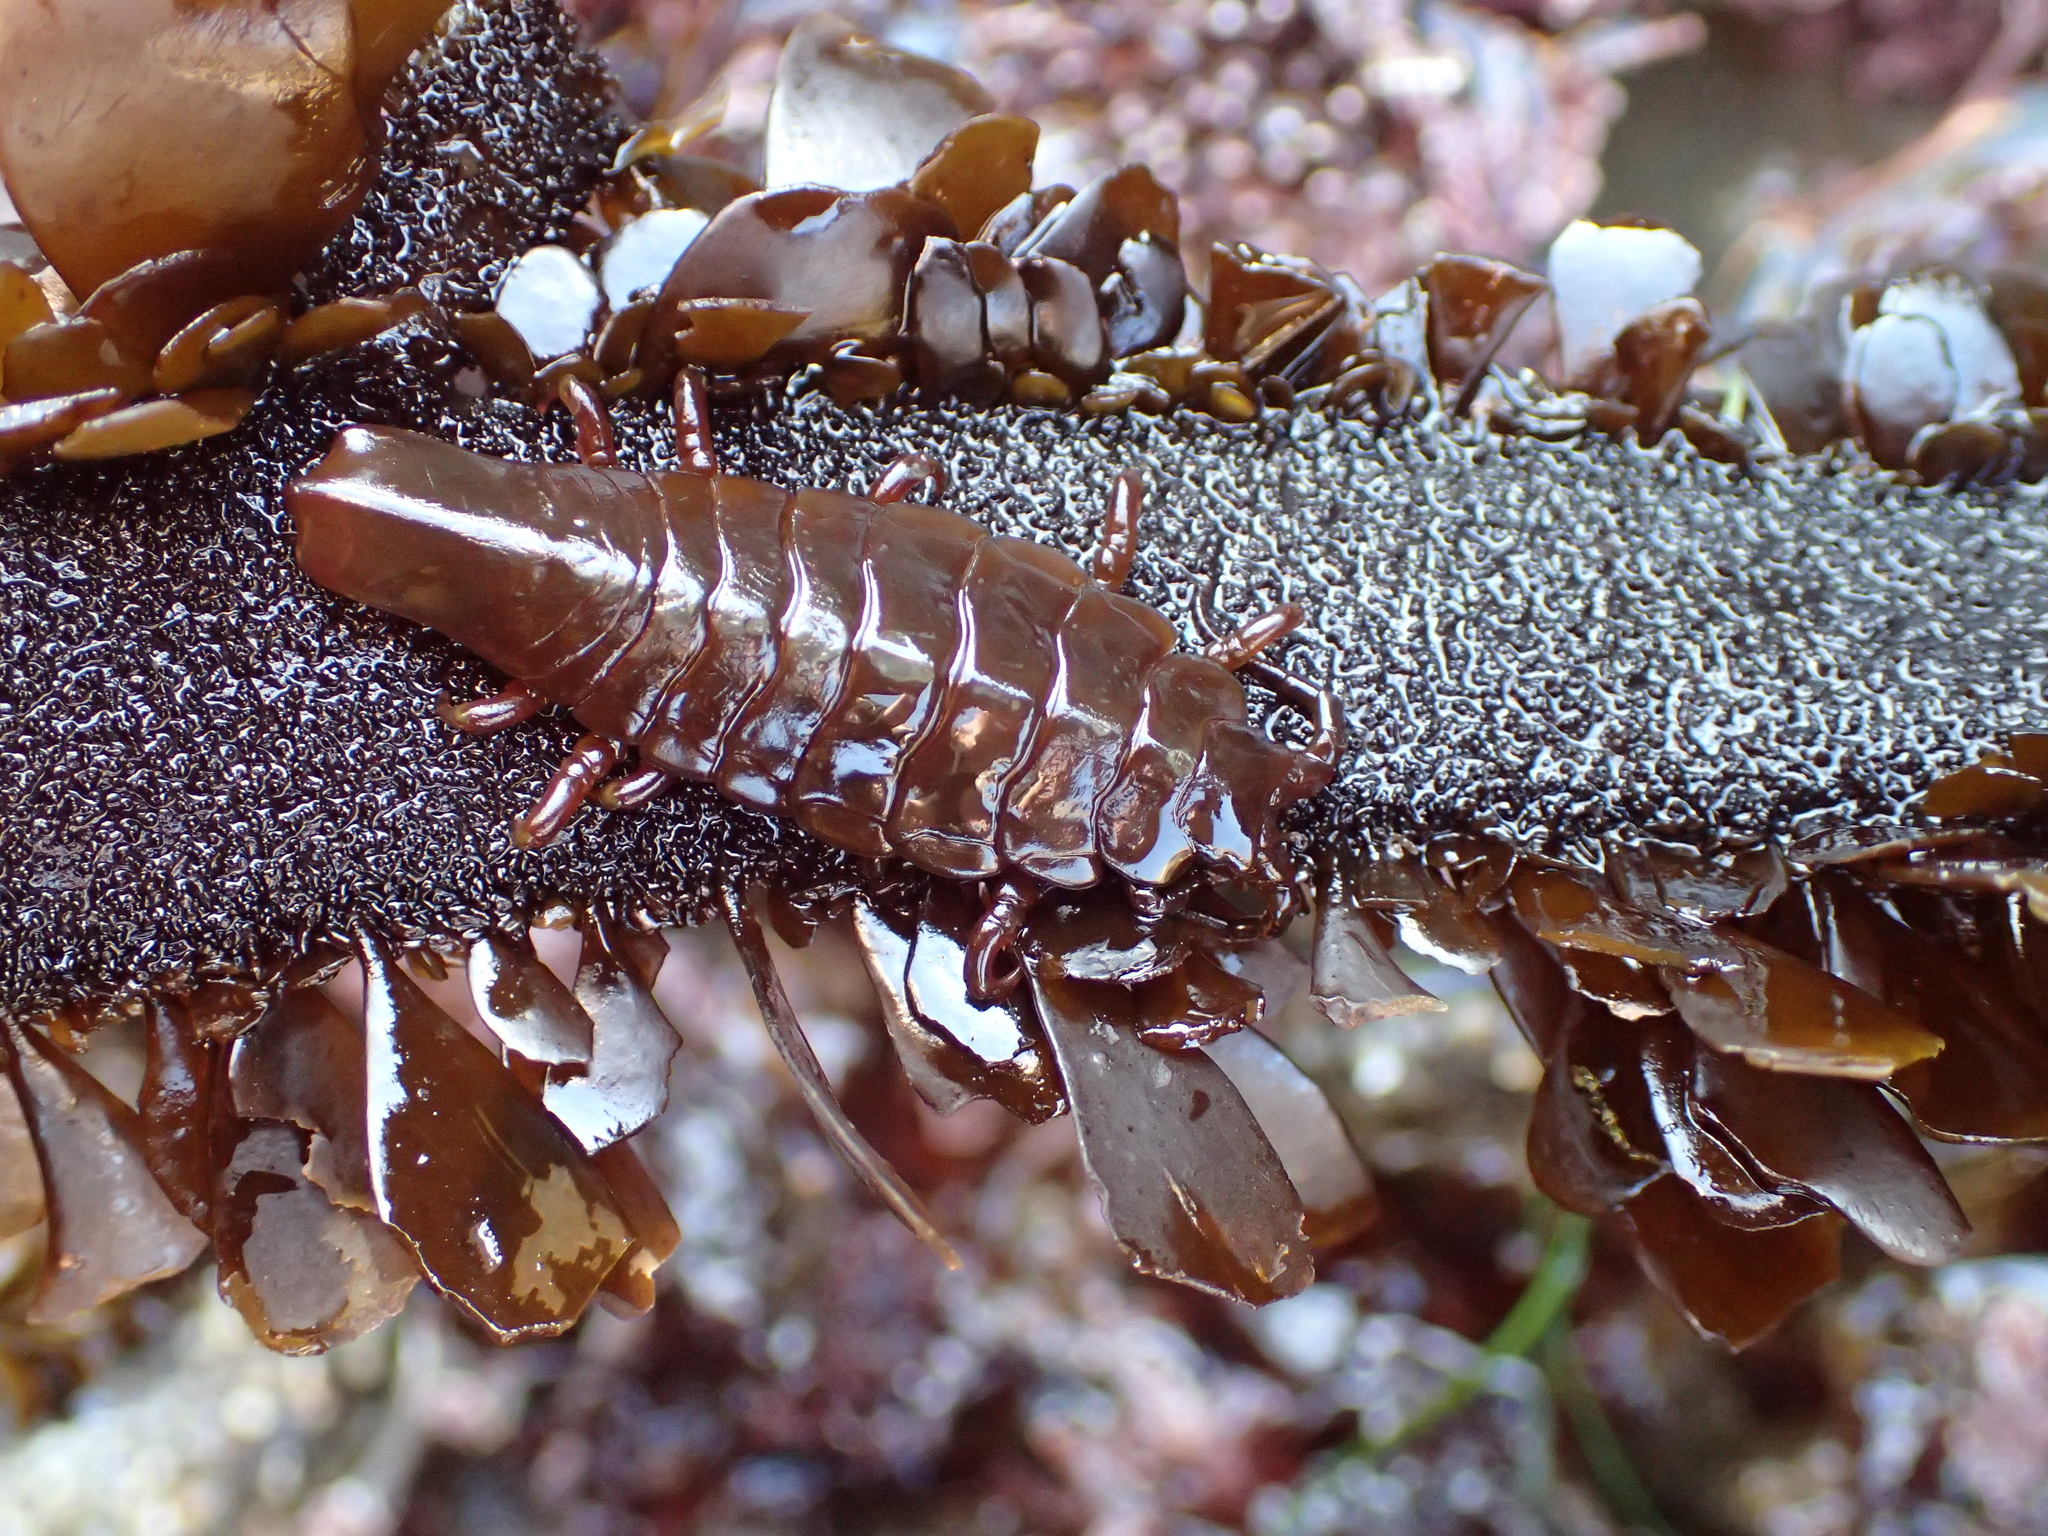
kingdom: Animalia
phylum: Arthropoda
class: Malacostraca
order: Isopoda
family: Idoteidae
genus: Pentidotea
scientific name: Pentidotea stenops
